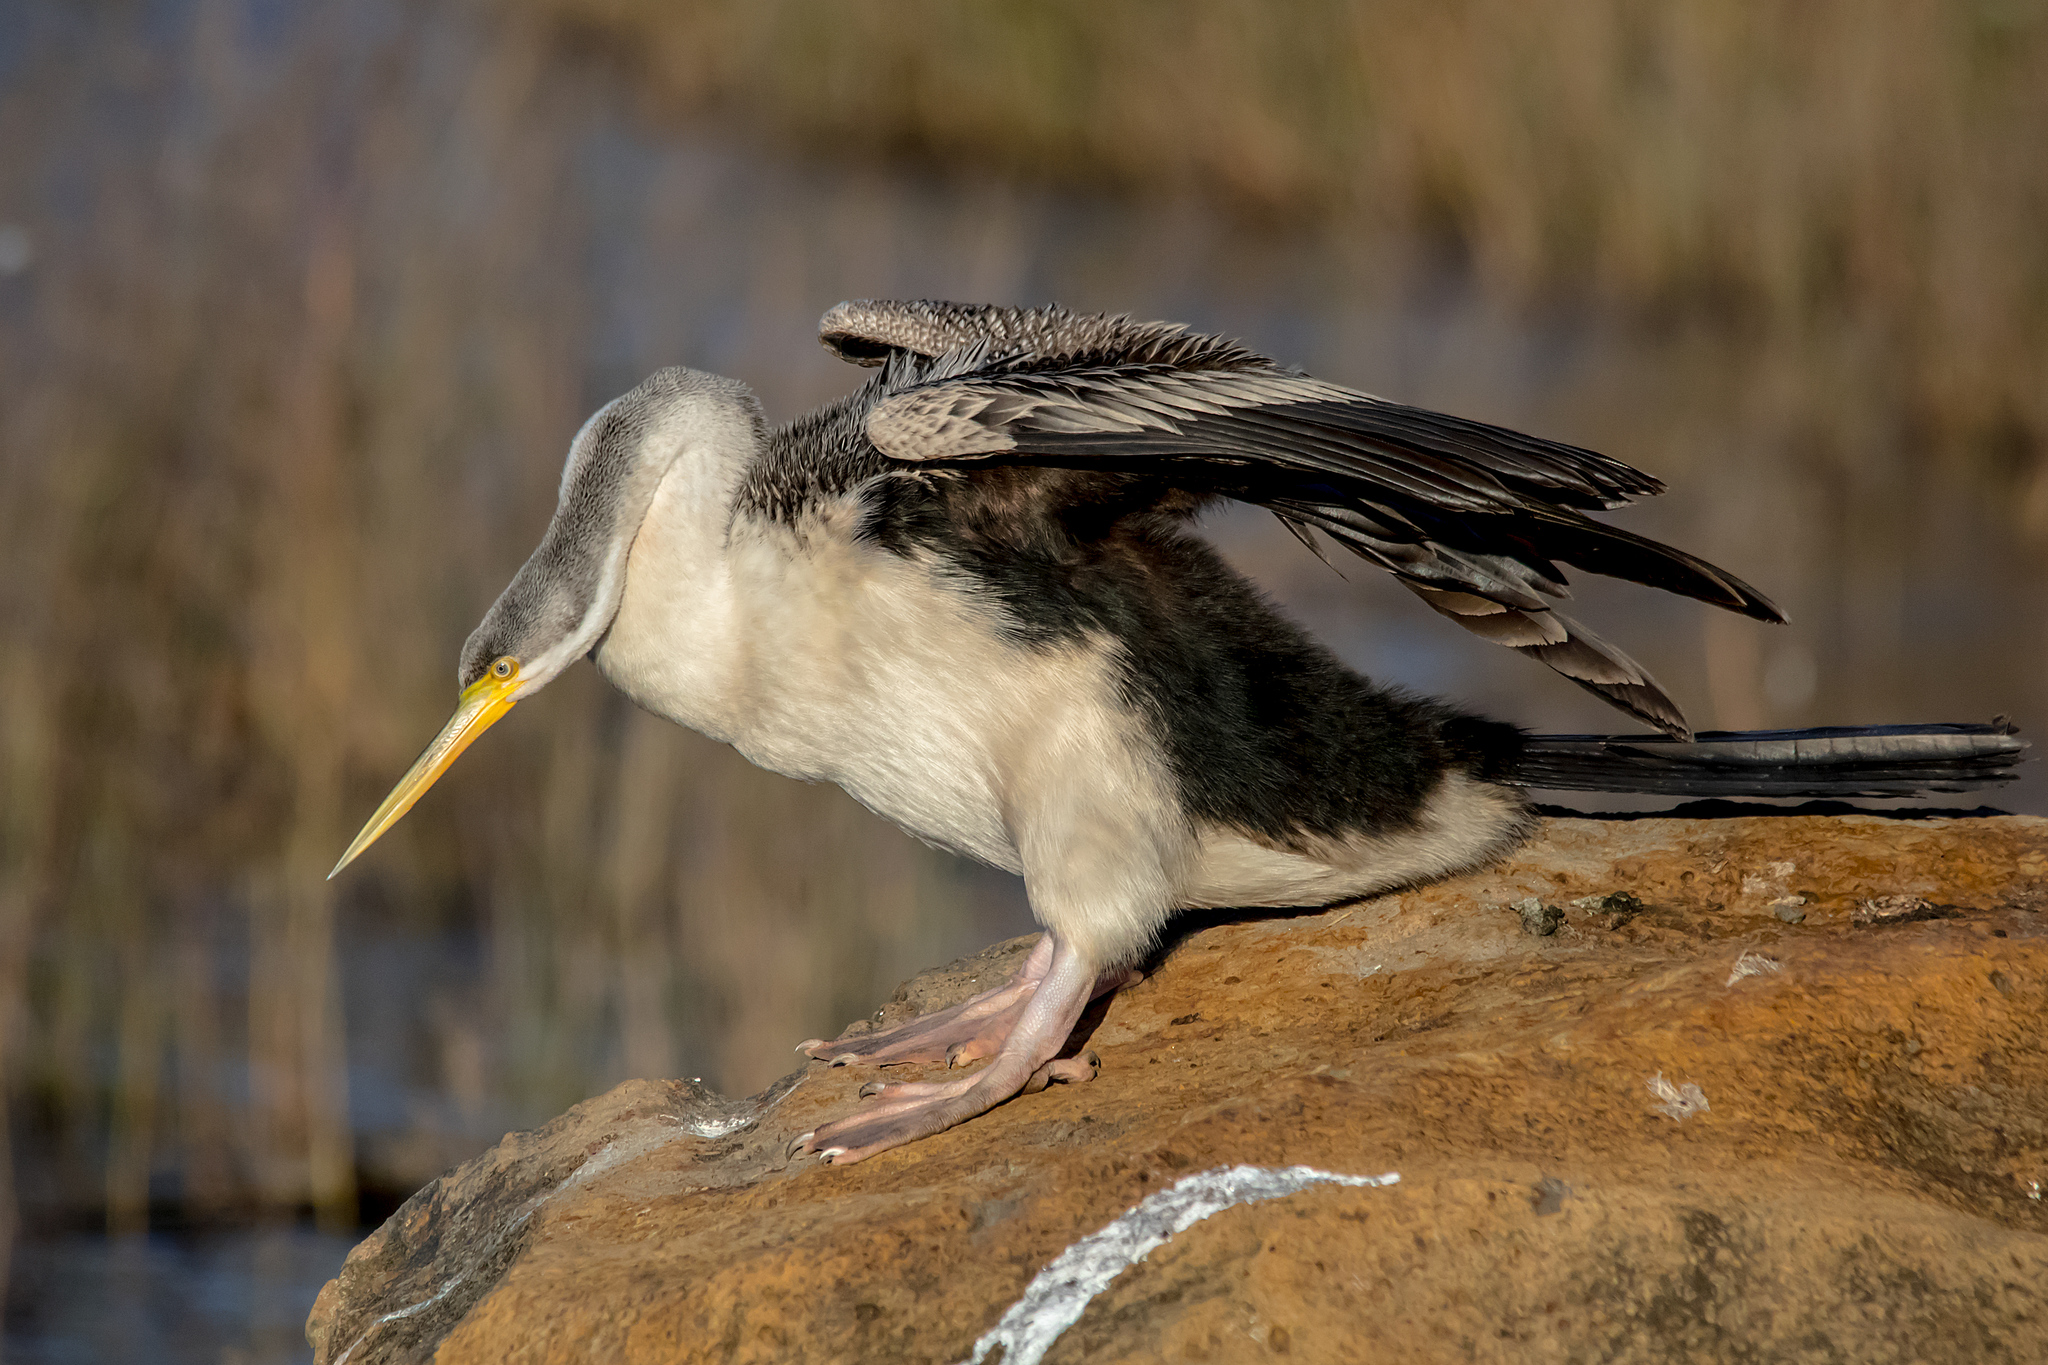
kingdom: Animalia
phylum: Chordata
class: Aves
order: Suliformes
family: Anhingidae
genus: Anhinga
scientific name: Anhinga novaehollandiae
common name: Australasian darter
